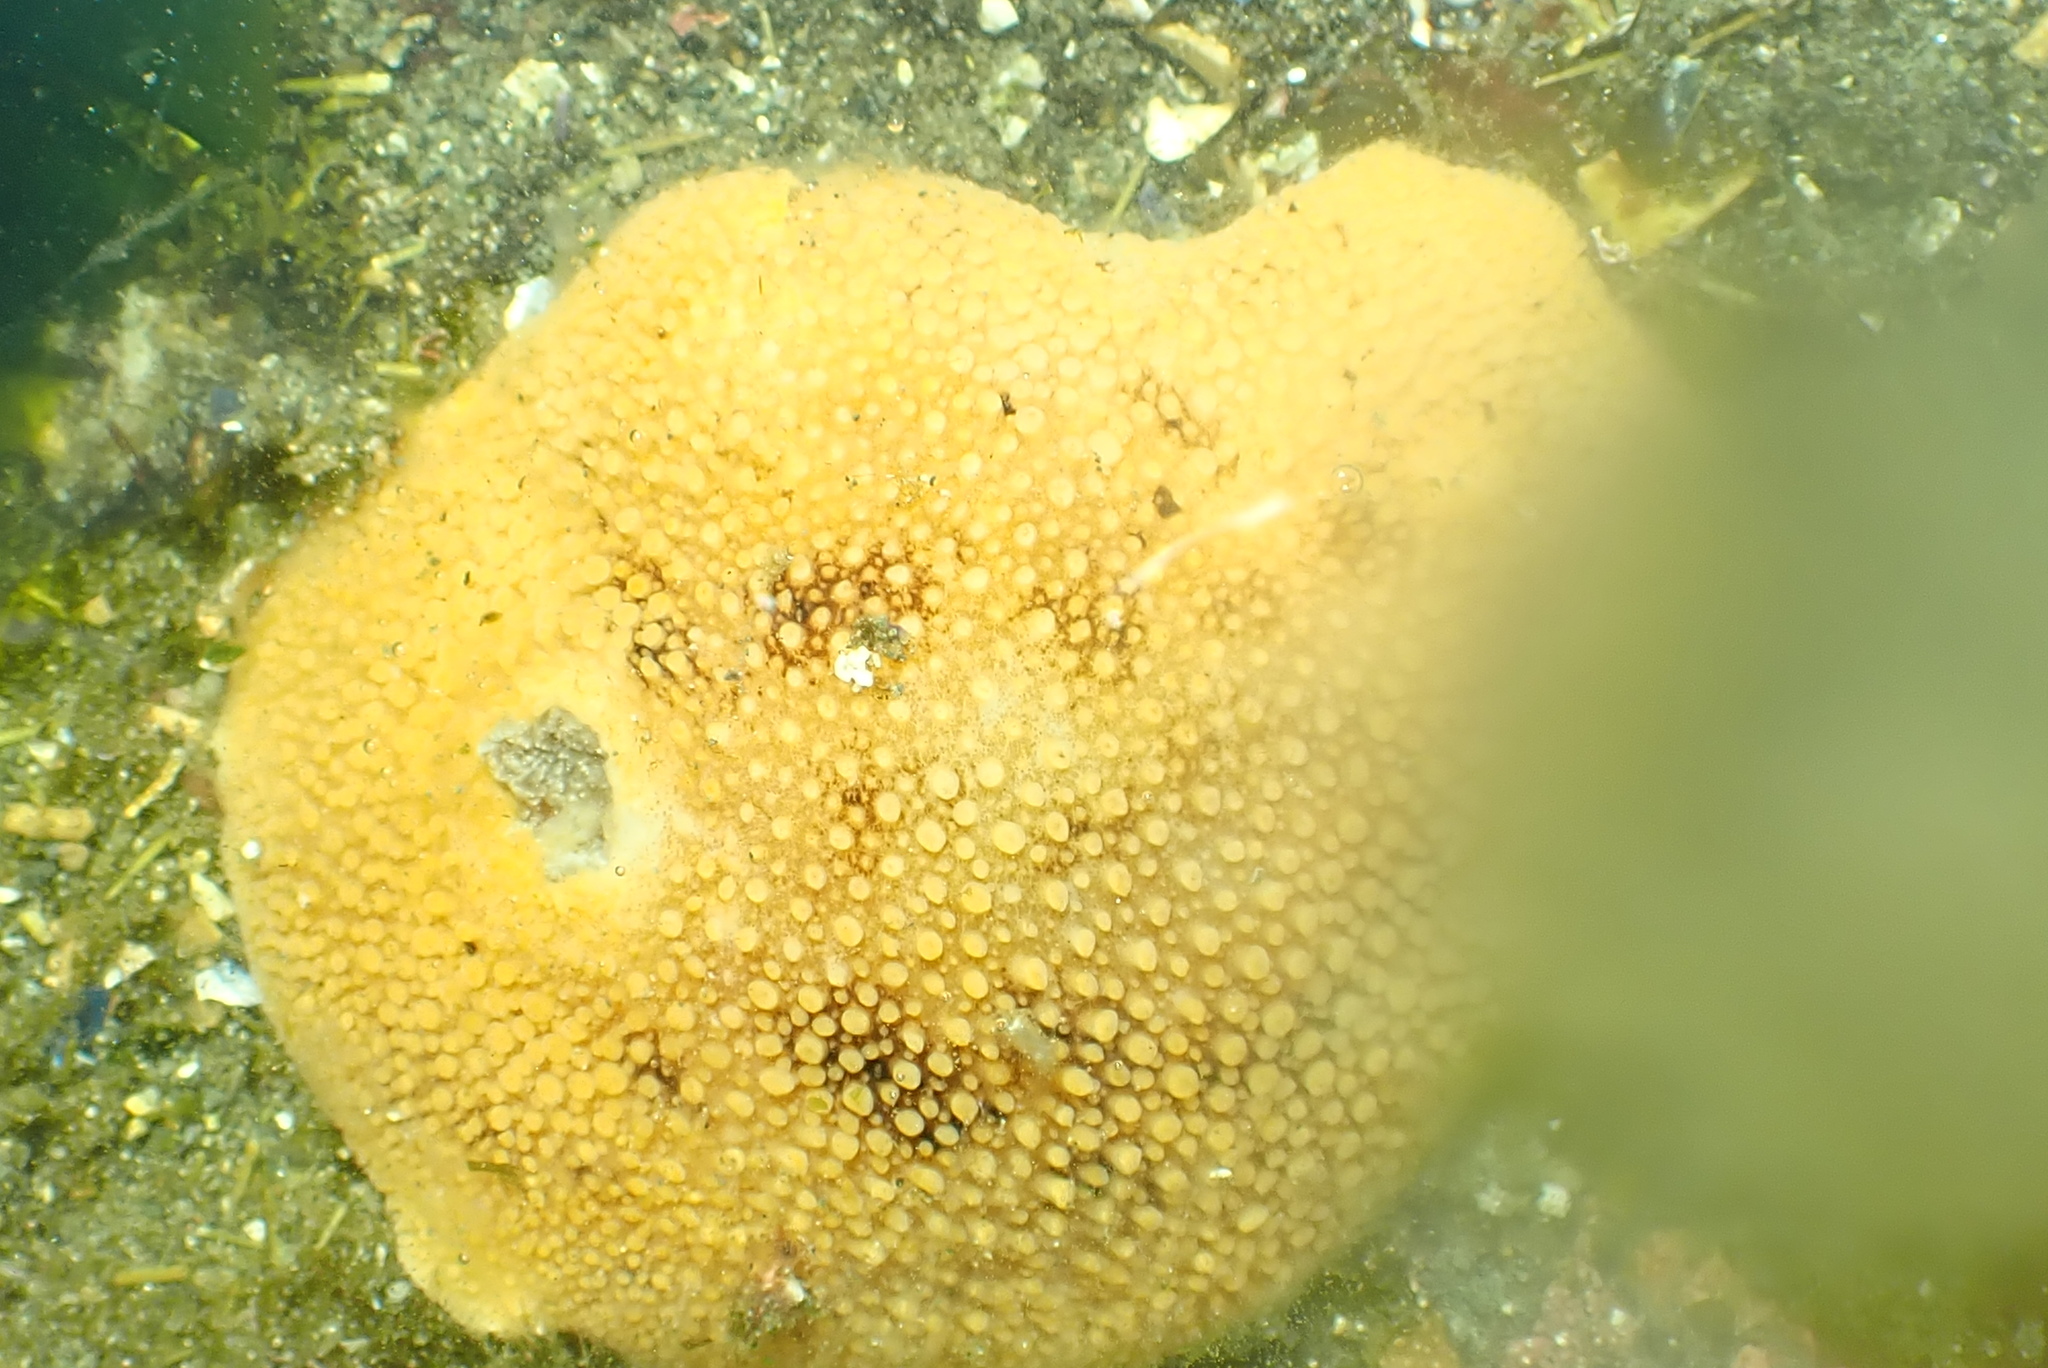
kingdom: Animalia
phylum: Mollusca
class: Gastropoda
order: Nudibranchia
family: Discodorididae
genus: Peltodoris
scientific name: Peltodoris nobilis
